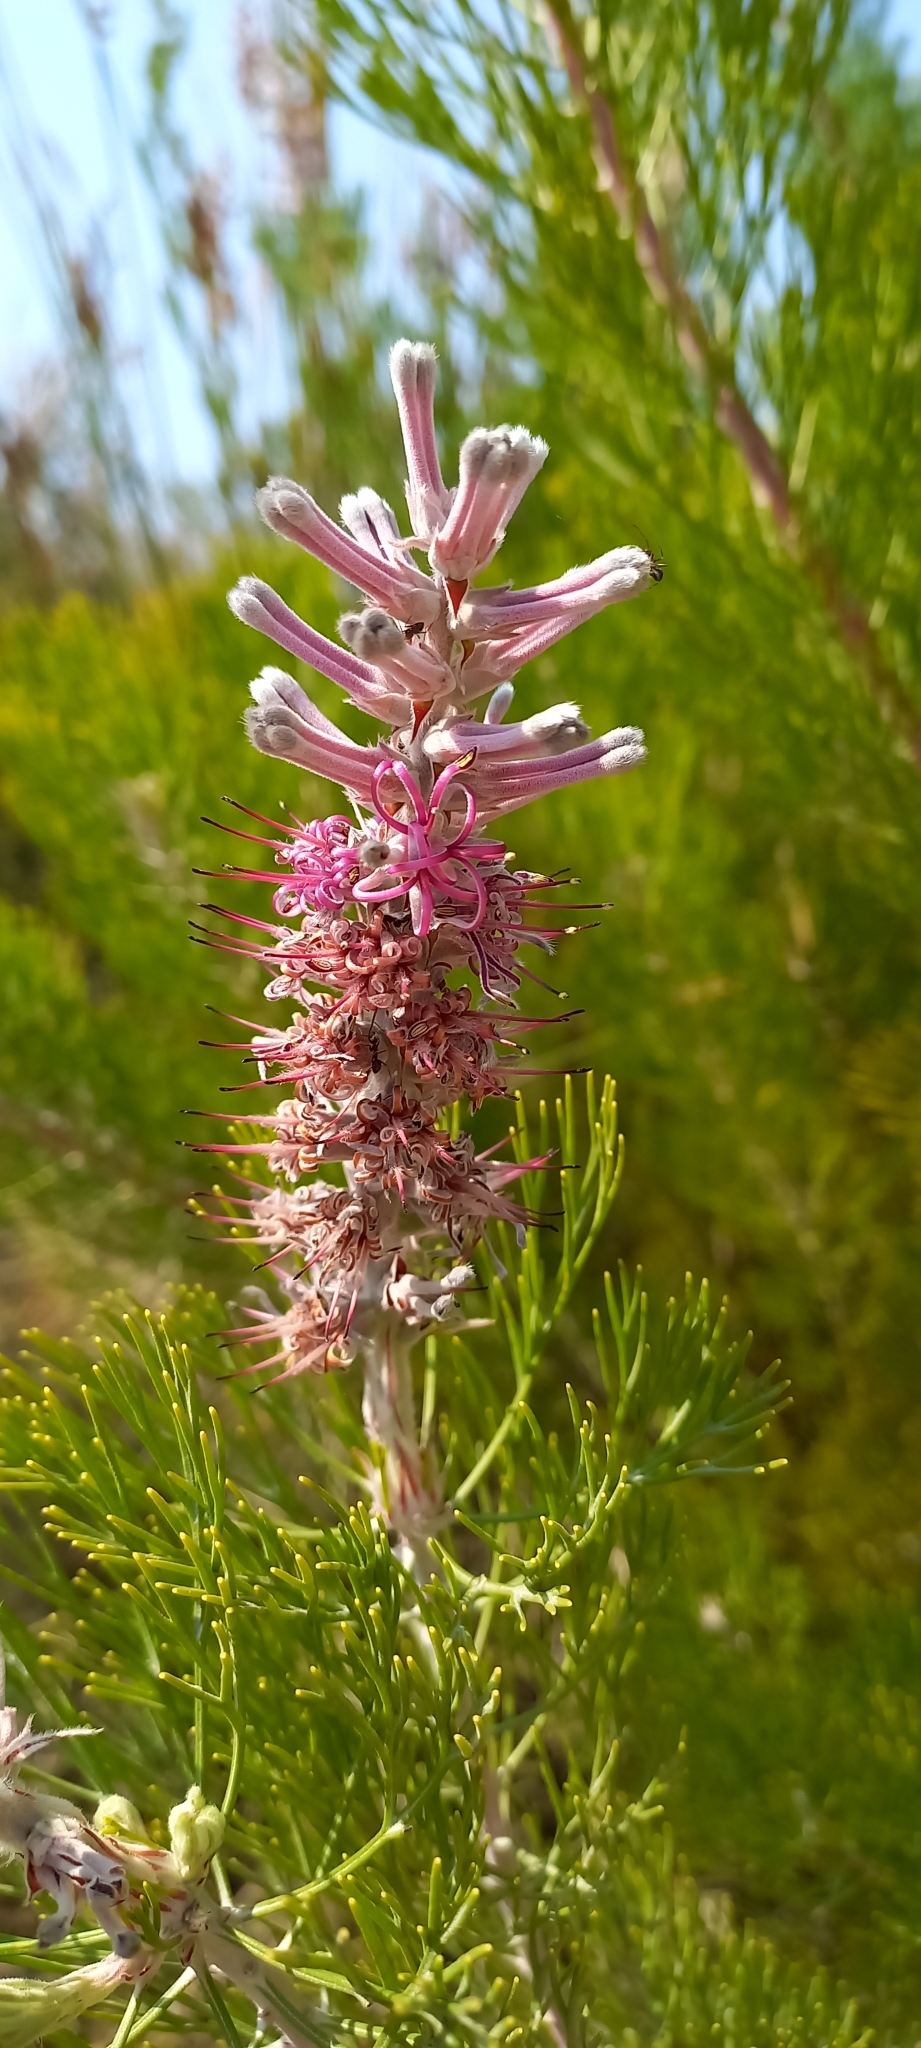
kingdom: Plantae
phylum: Tracheophyta
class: Magnoliopsida
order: Proteales
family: Proteaceae
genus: Paranomus
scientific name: Paranomus bracteolaris
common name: Bokkeveld tree sceptre
